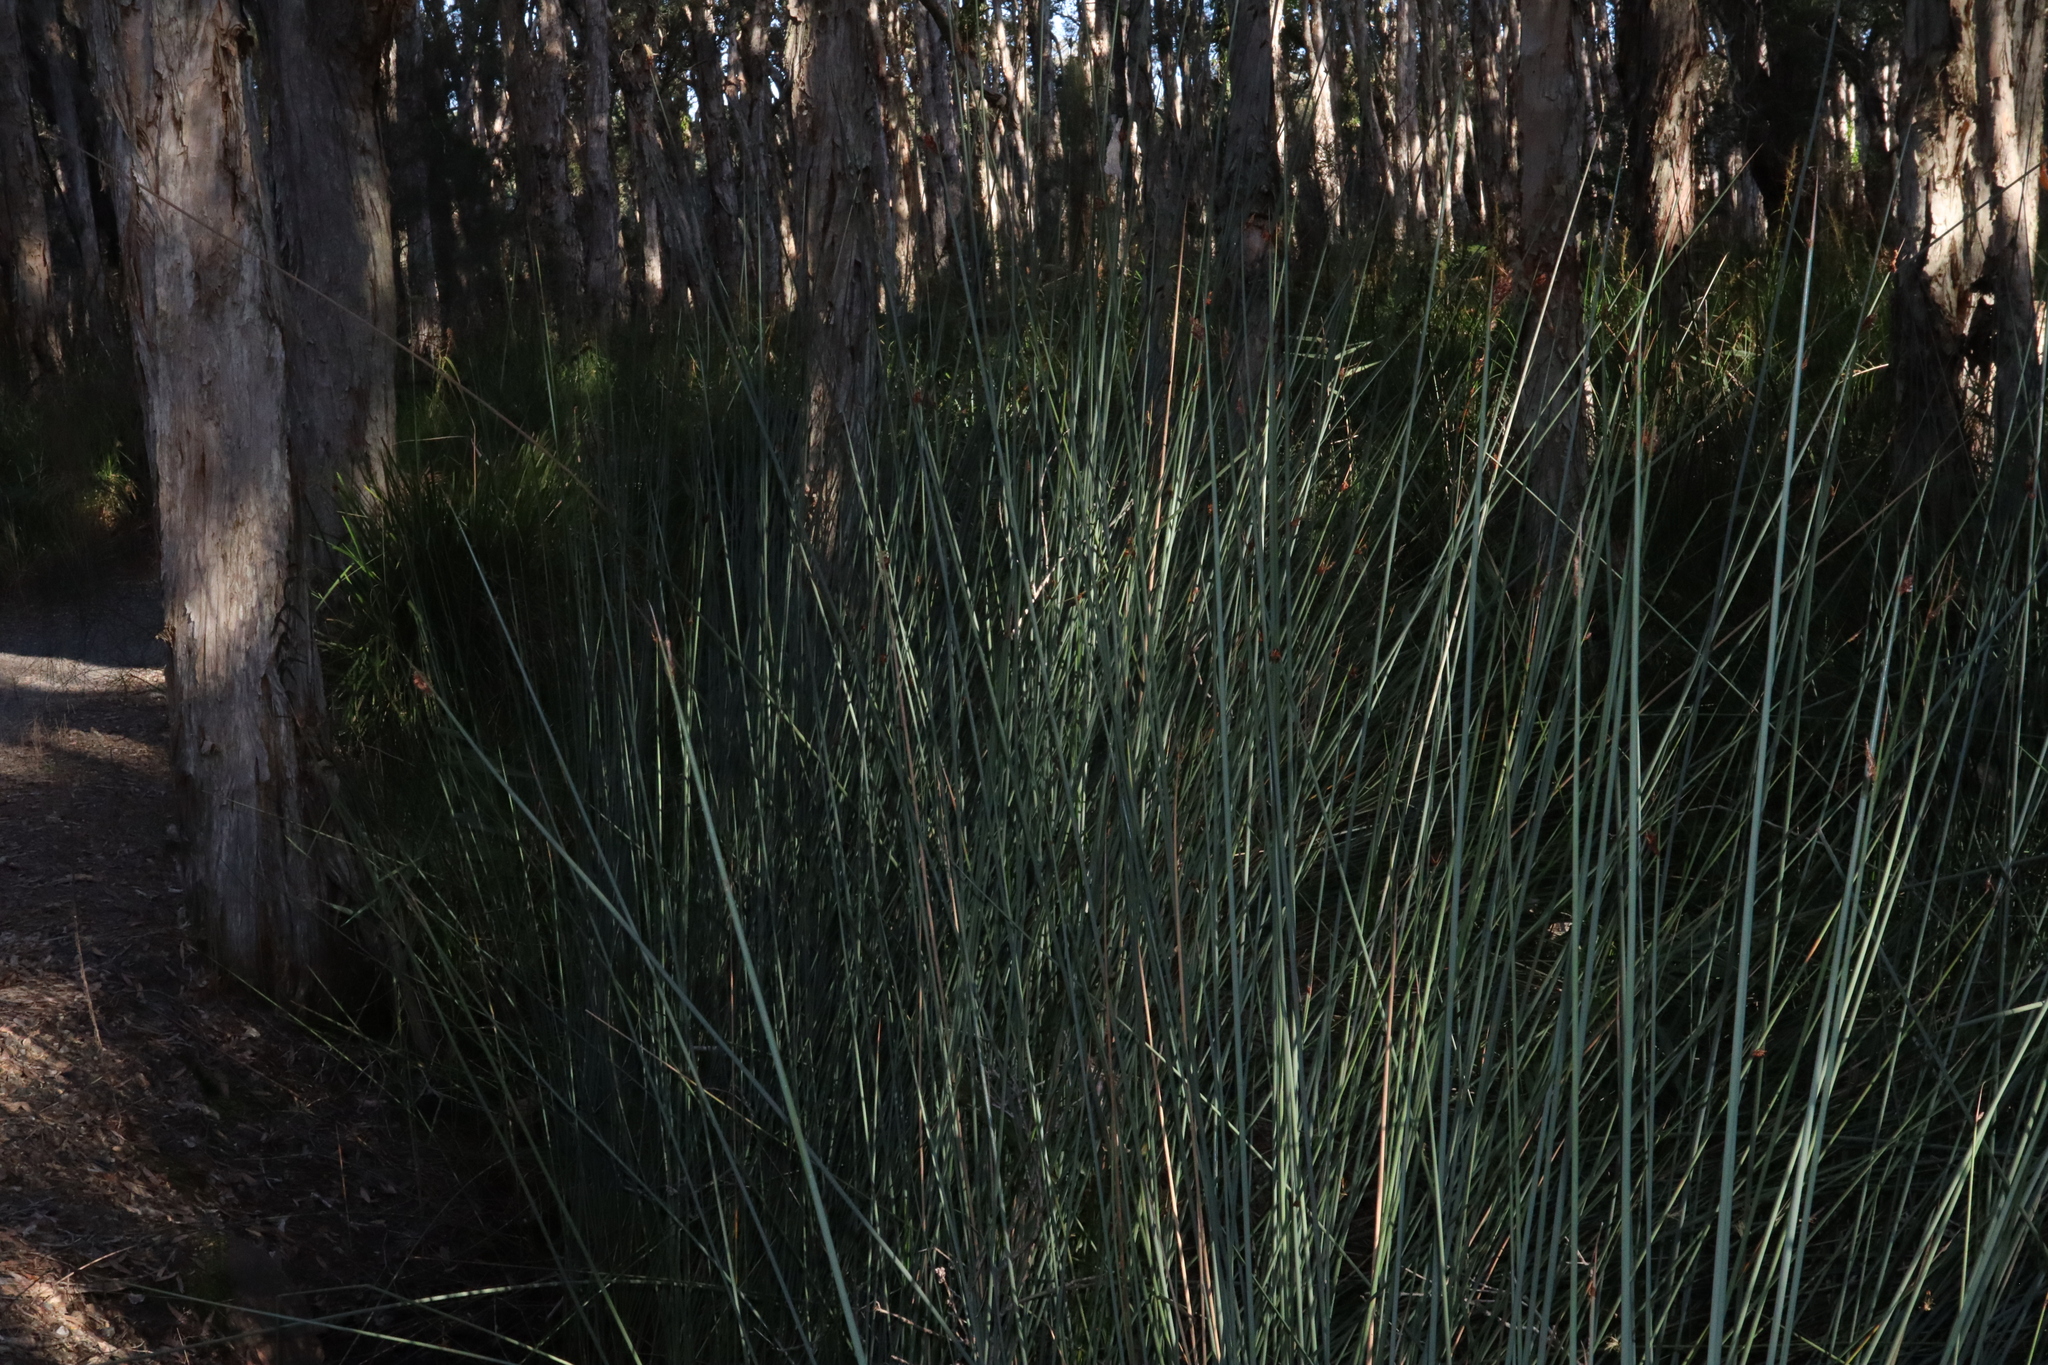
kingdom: Plantae
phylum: Tracheophyta
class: Liliopsida
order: Poales
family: Cyperaceae
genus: Lepironia
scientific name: Lepironia articulata
